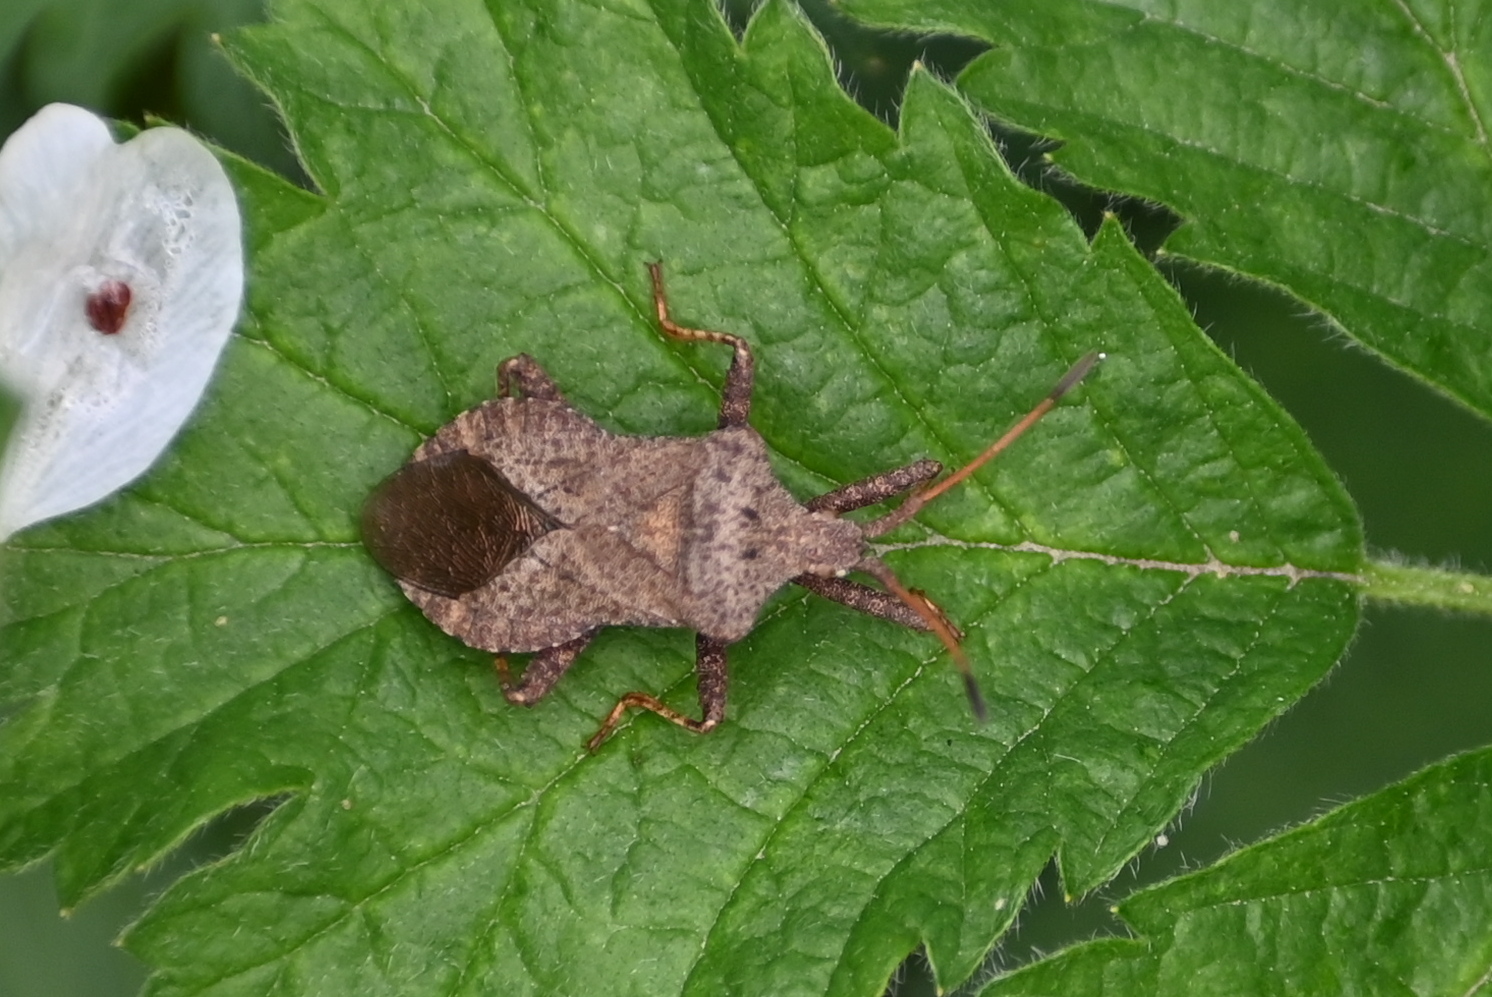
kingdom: Animalia
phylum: Arthropoda
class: Insecta
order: Hemiptera
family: Coreidae
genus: Coreus
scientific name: Coreus marginatus
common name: Dock bug
